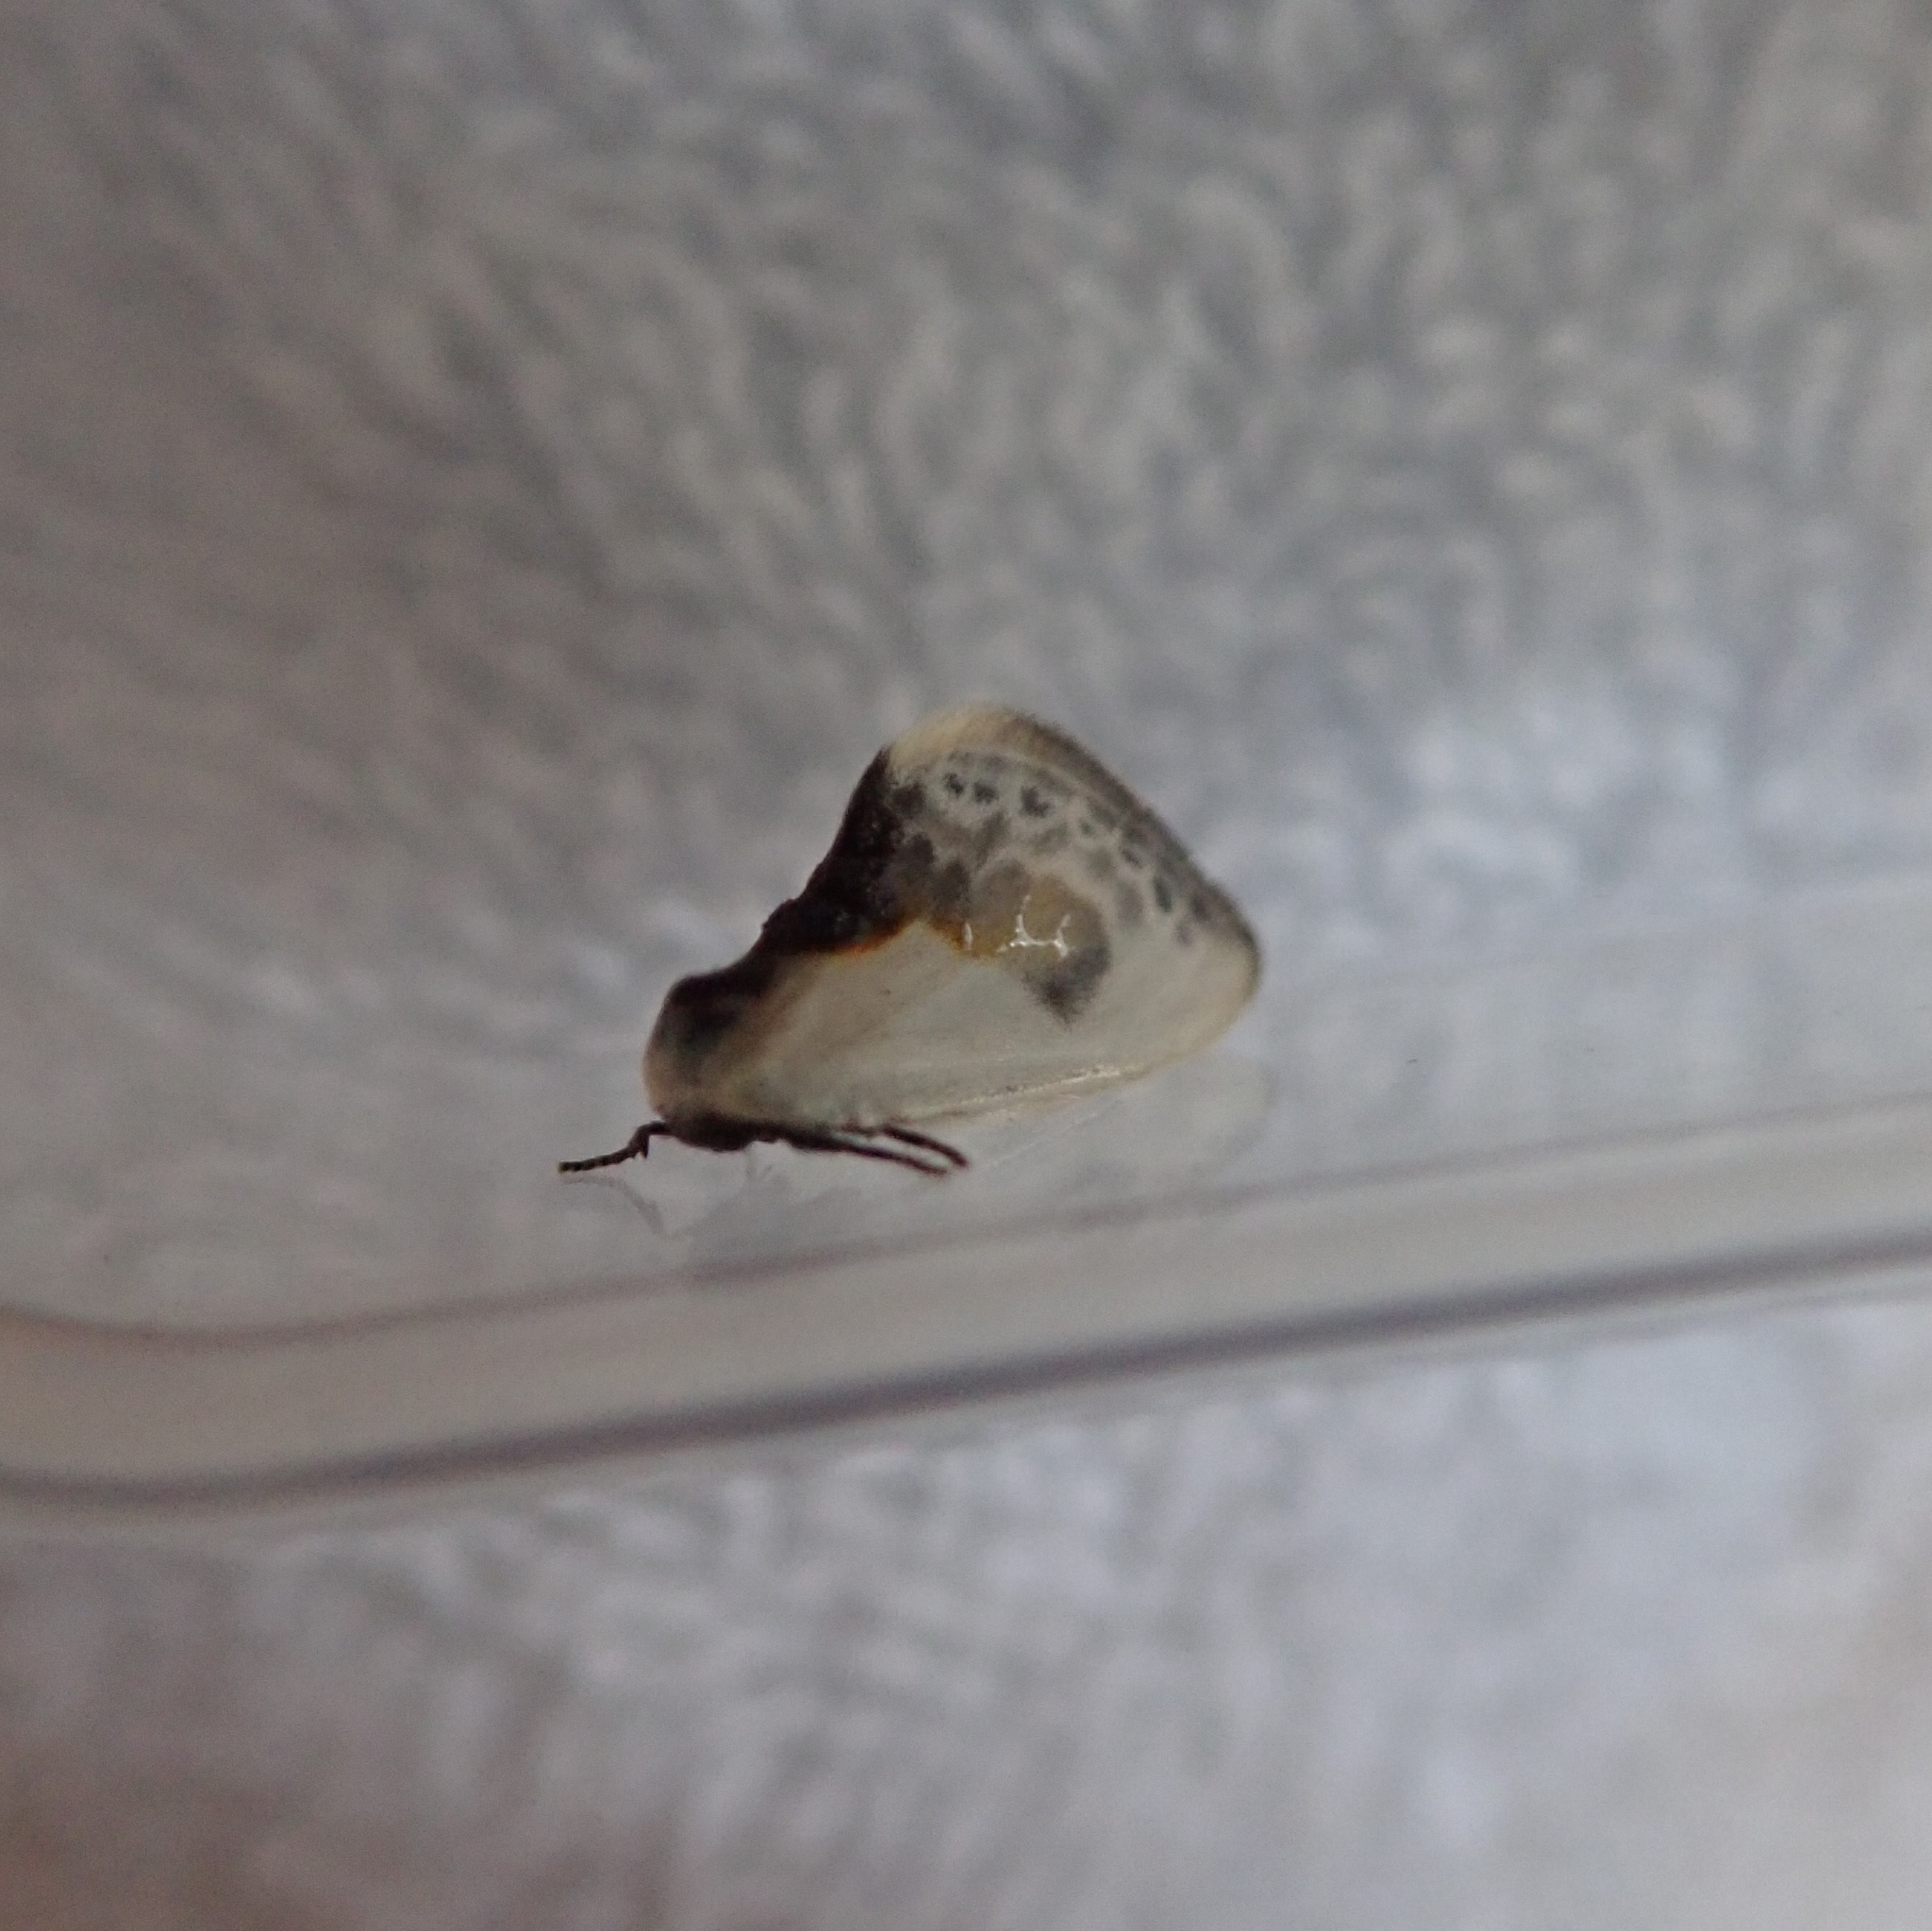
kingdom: Animalia
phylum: Arthropoda
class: Insecta
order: Lepidoptera
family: Drepanidae
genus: Cilix
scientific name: Cilix glaucata
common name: Chinese character
